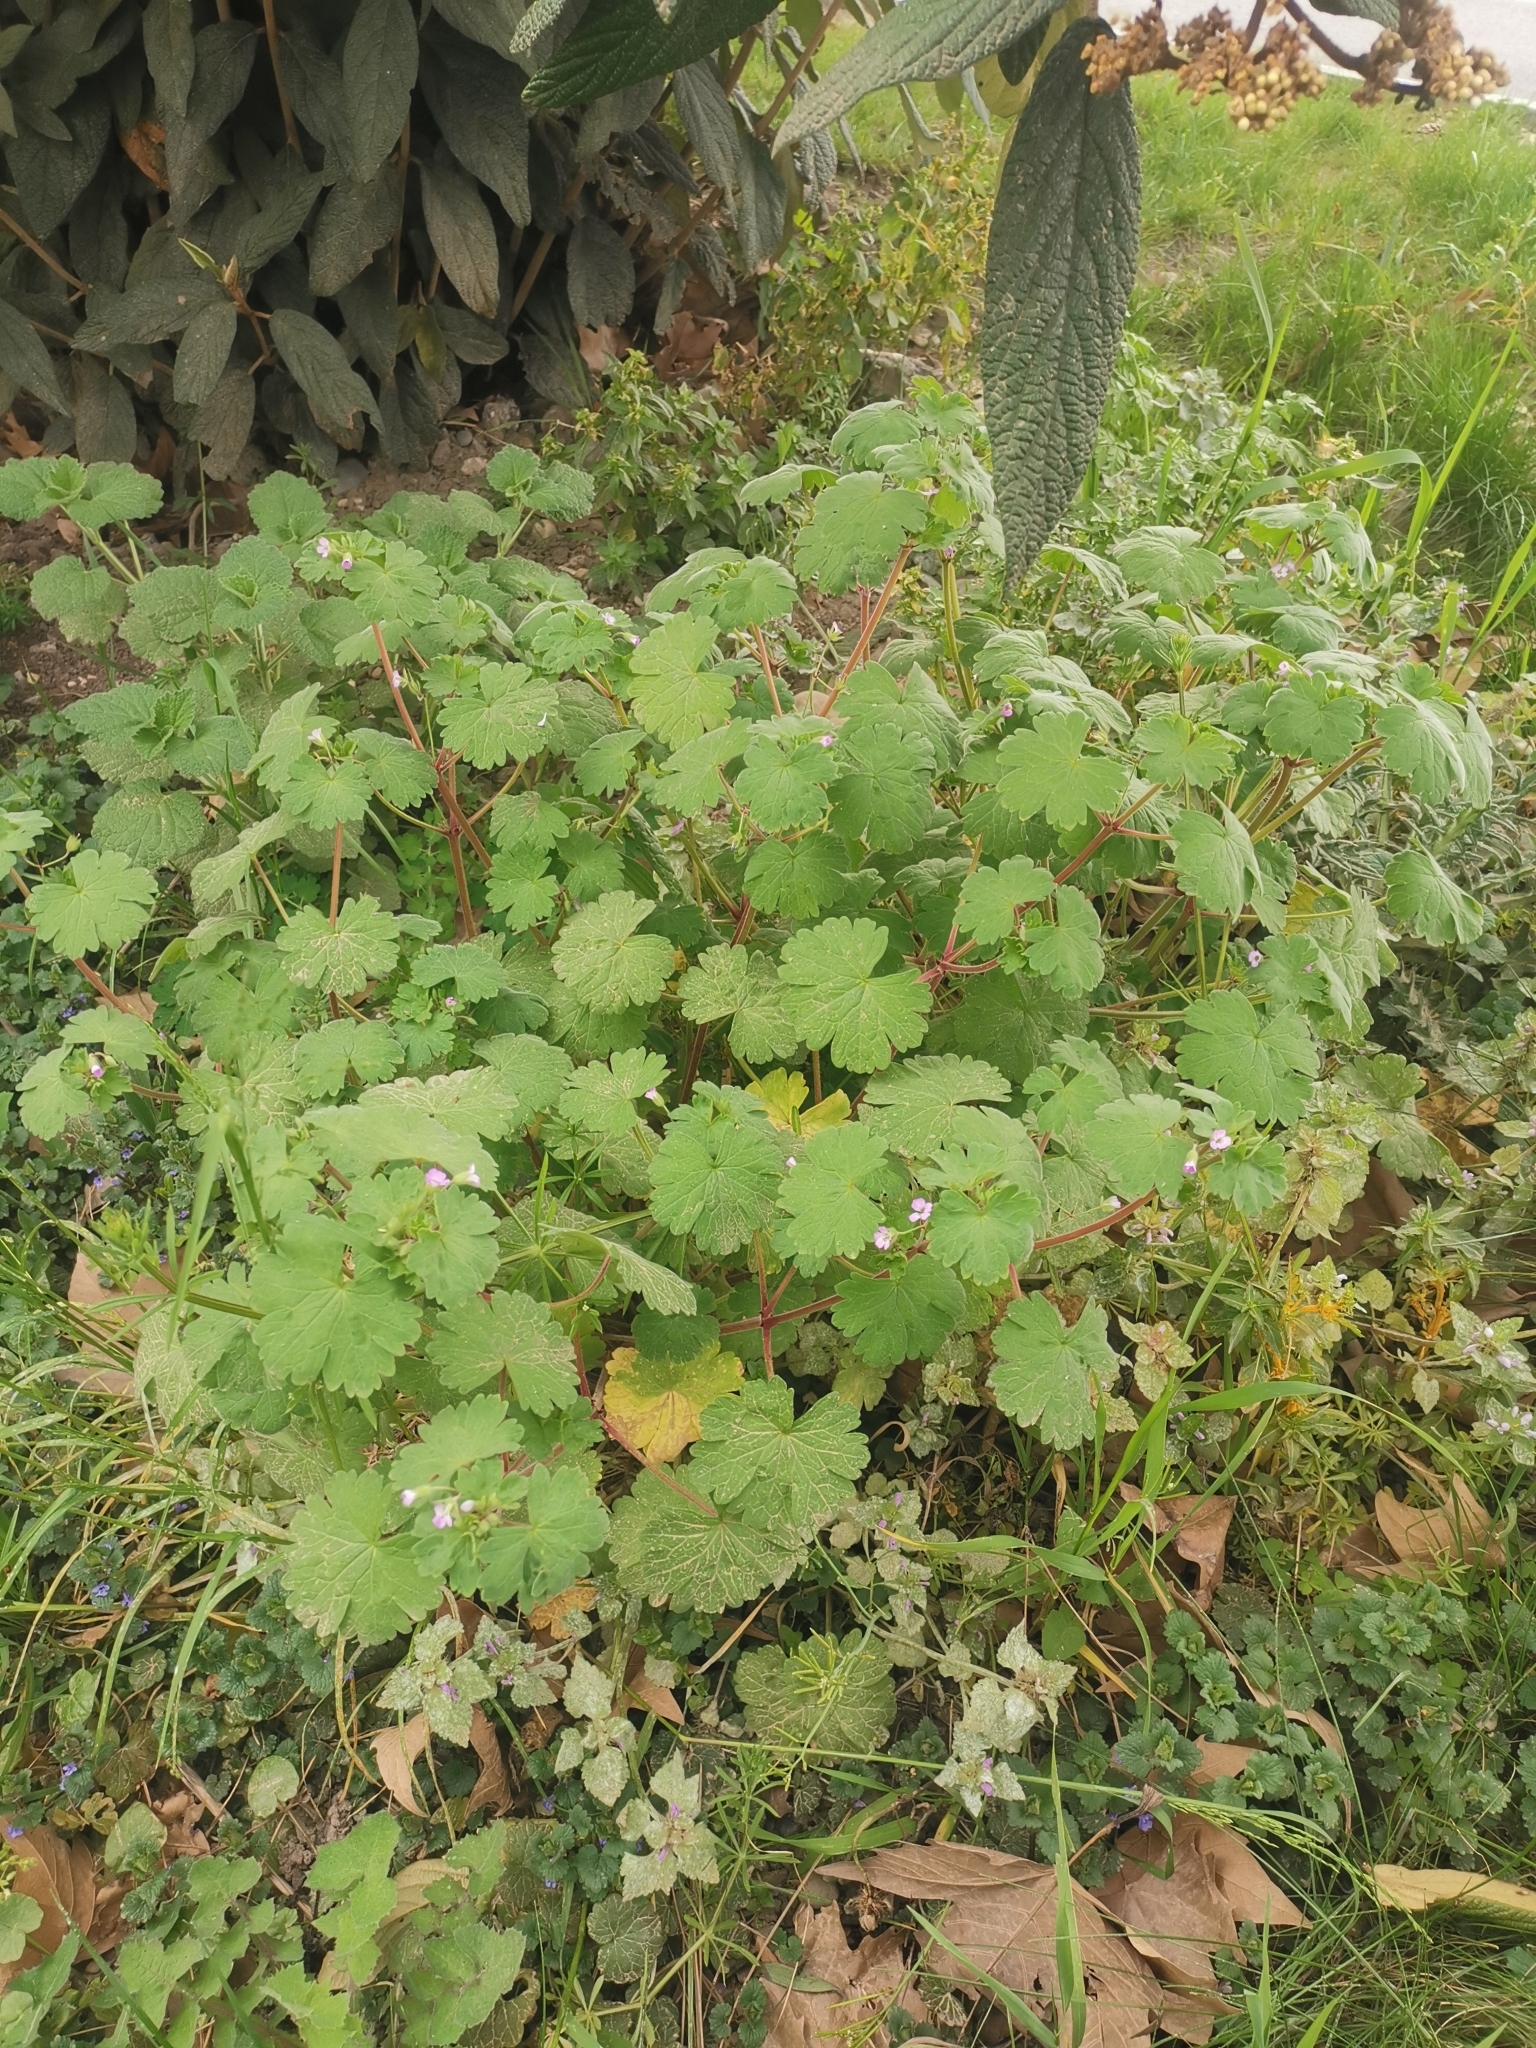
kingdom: Plantae
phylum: Tracheophyta
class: Magnoliopsida
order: Geraniales
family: Geraniaceae
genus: Geranium
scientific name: Geranium rotundifolium
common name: Round-leaved crane's-bill
